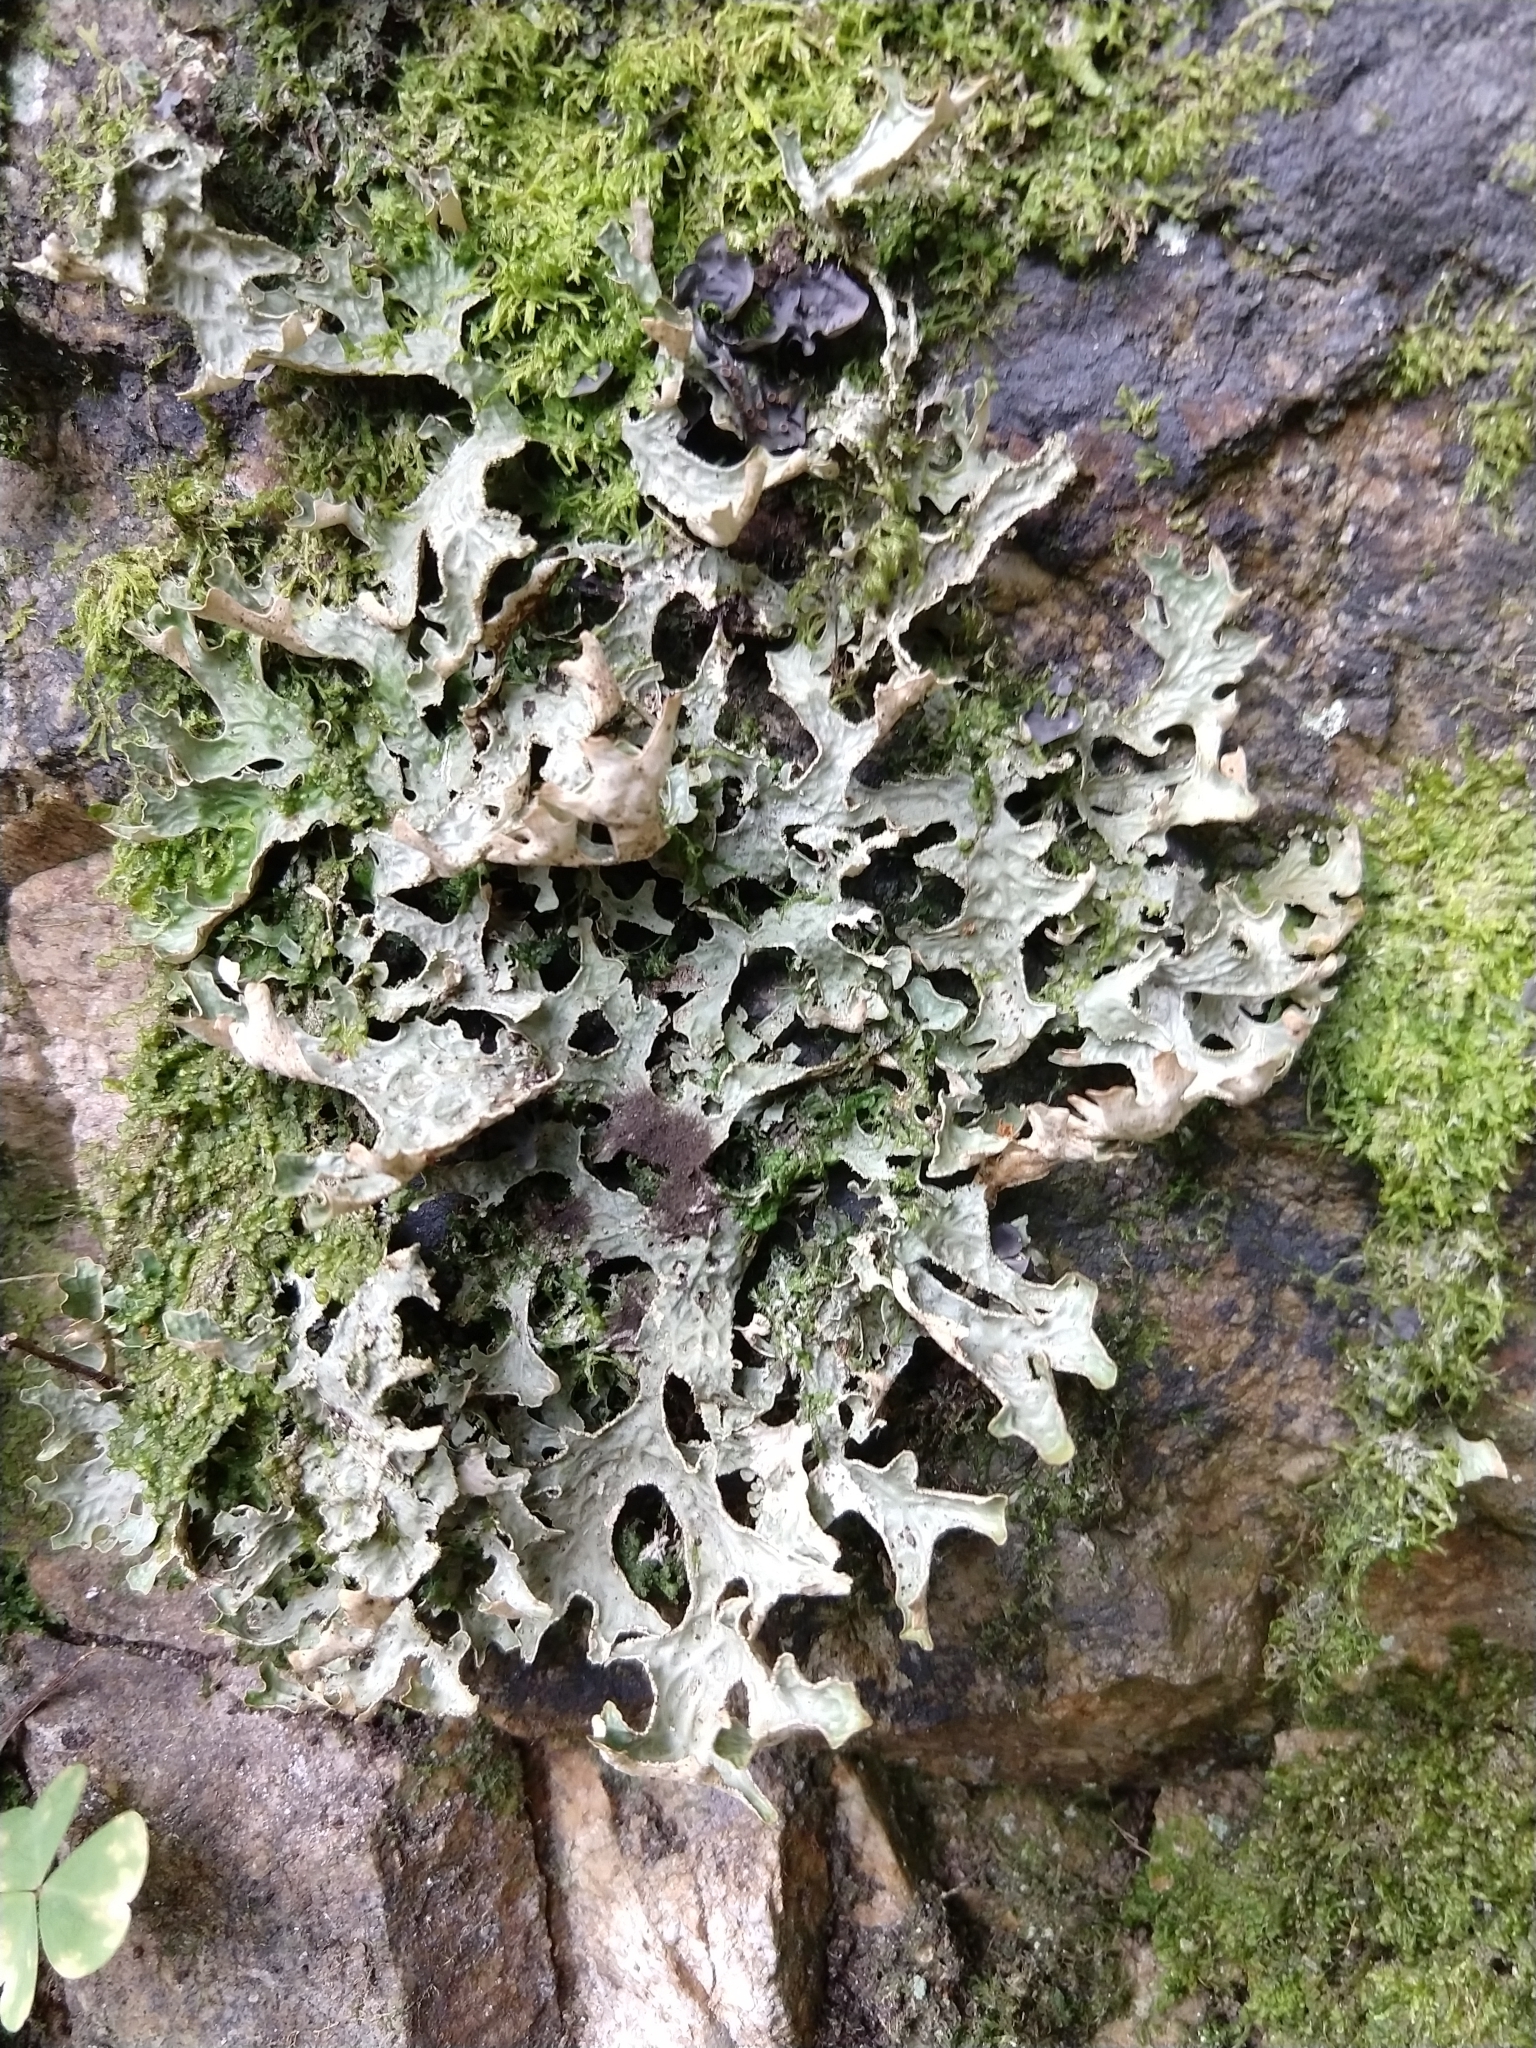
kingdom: Fungi
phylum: Ascomycota
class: Lecanoromycetes
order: Peltigerales
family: Lobariaceae
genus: Lobaria
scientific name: Lobaria pulmonaria
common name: Lungwort
